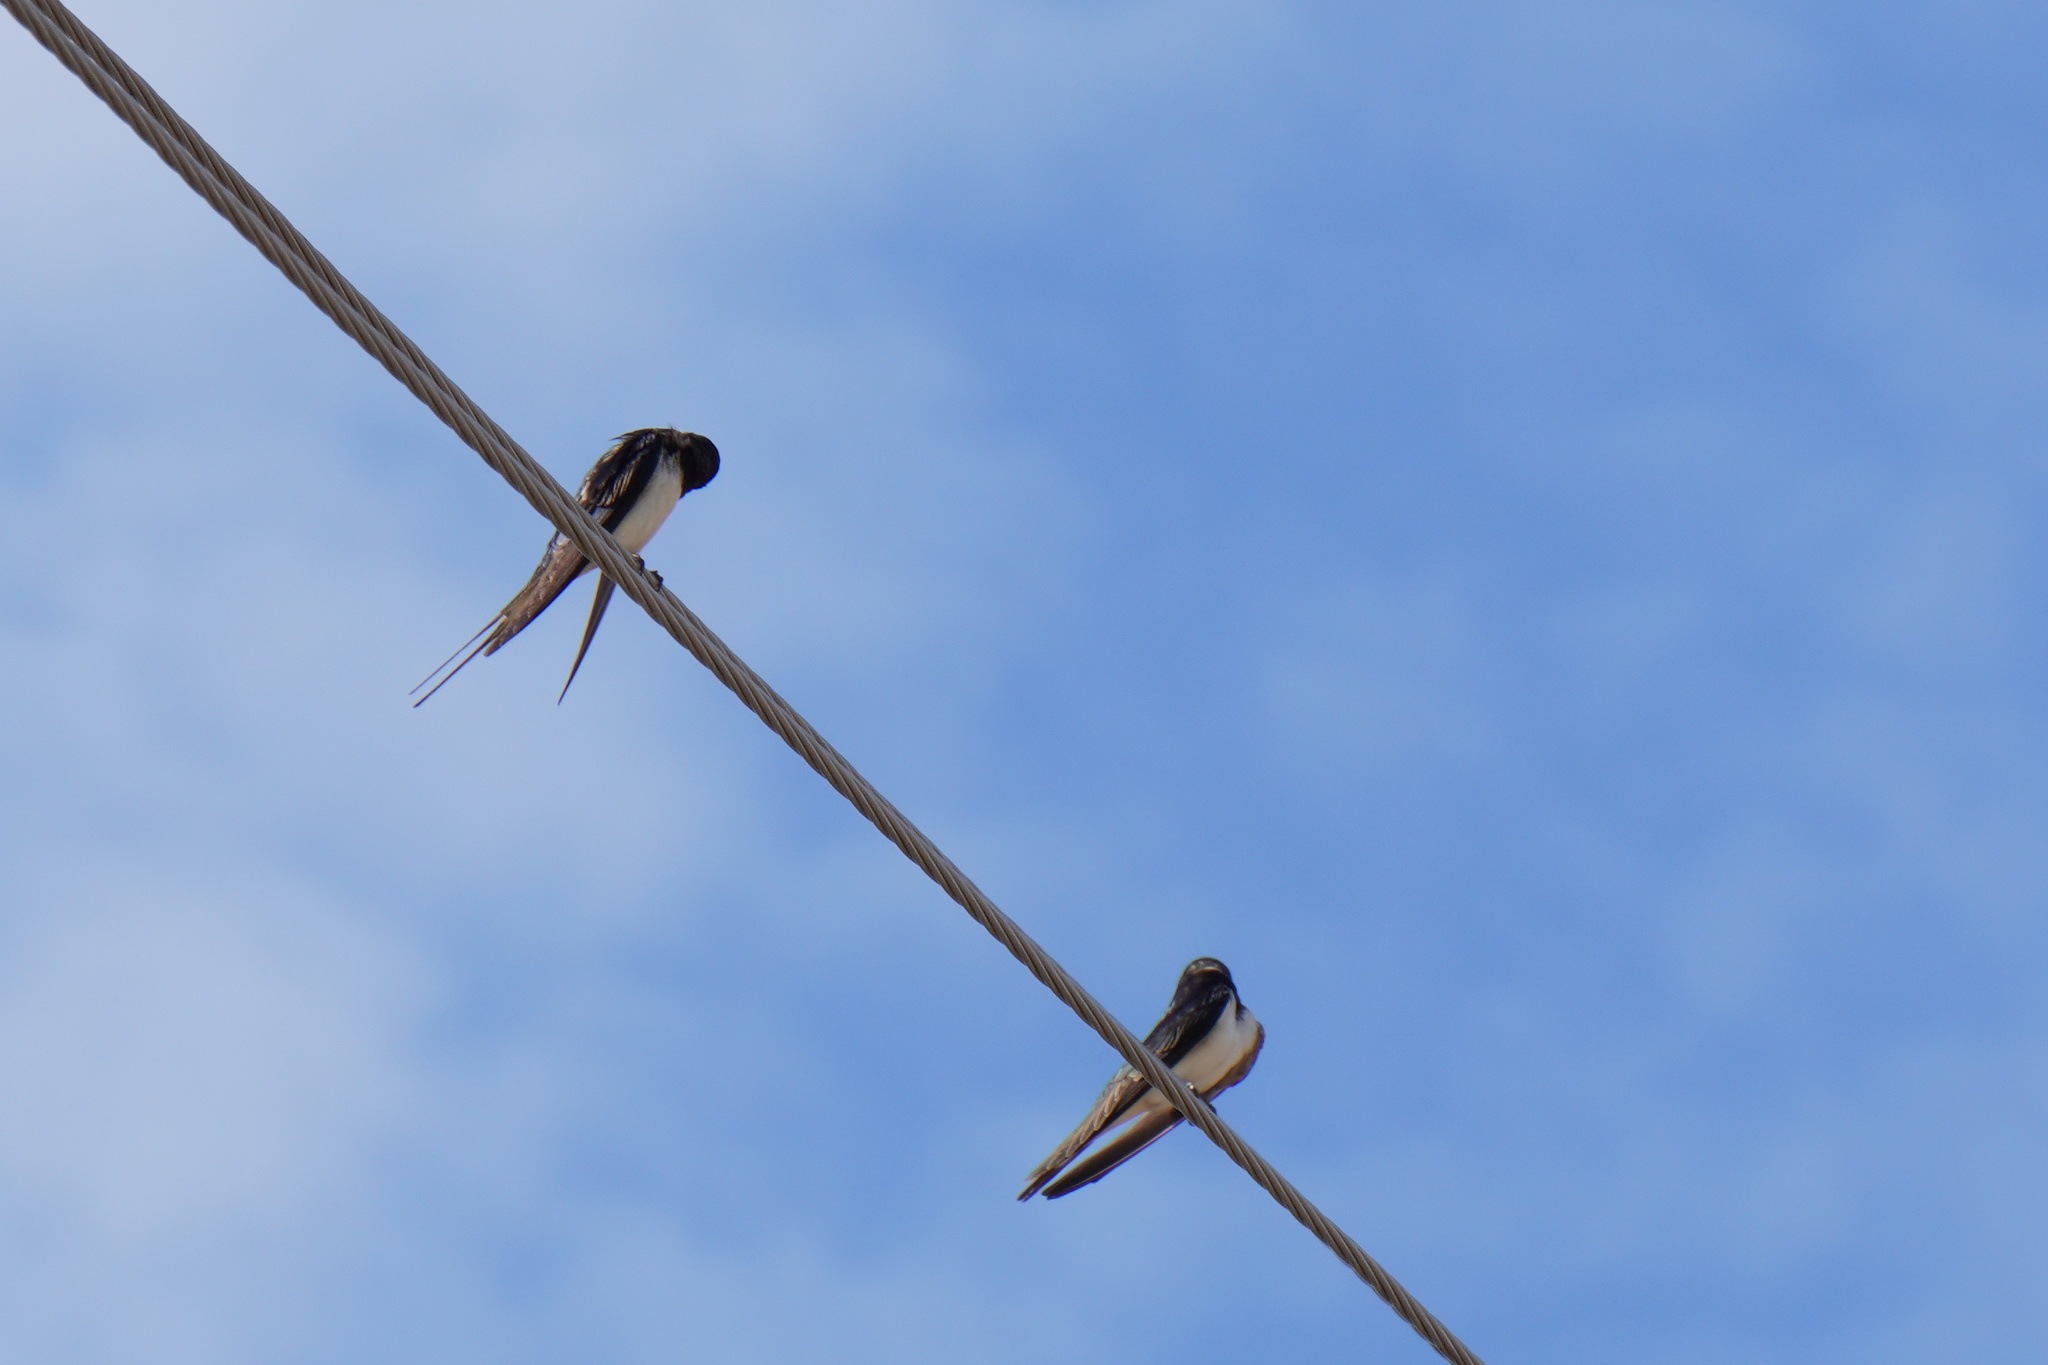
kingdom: Animalia
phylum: Chordata
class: Aves
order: Passeriformes
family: Hirundinidae
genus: Hirundo
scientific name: Hirundo rustica
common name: Barn swallow
